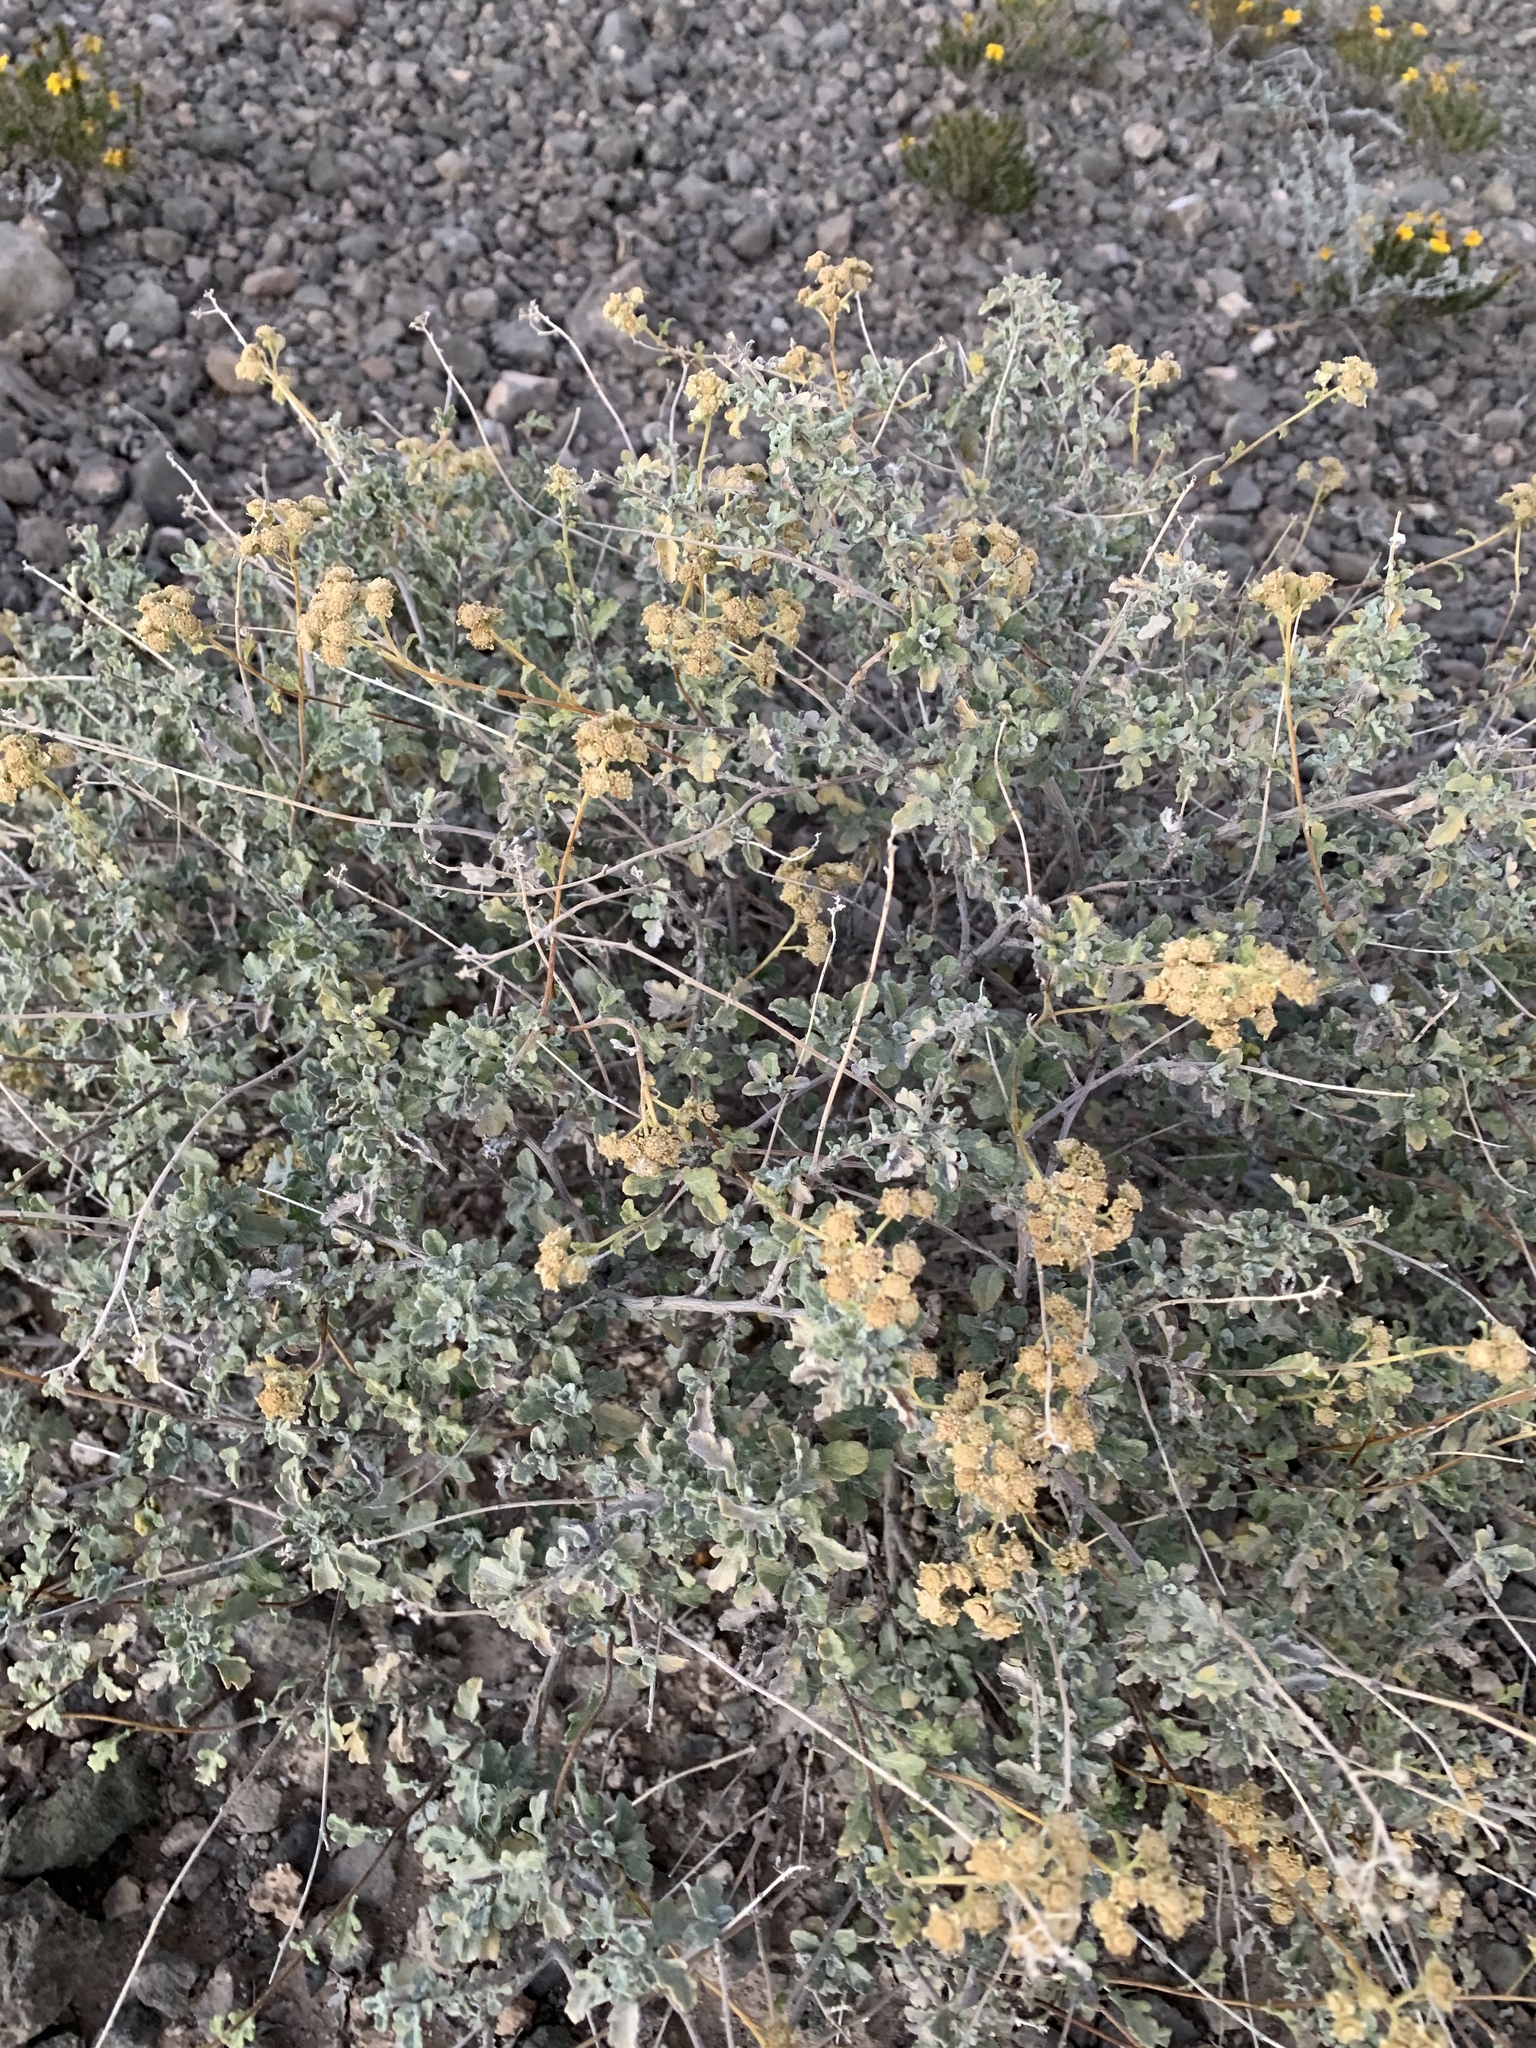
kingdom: Plantae
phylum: Tracheophyta
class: Magnoliopsida
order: Asterales
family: Asteraceae
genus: Parthenium
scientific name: Parthenium incanum
